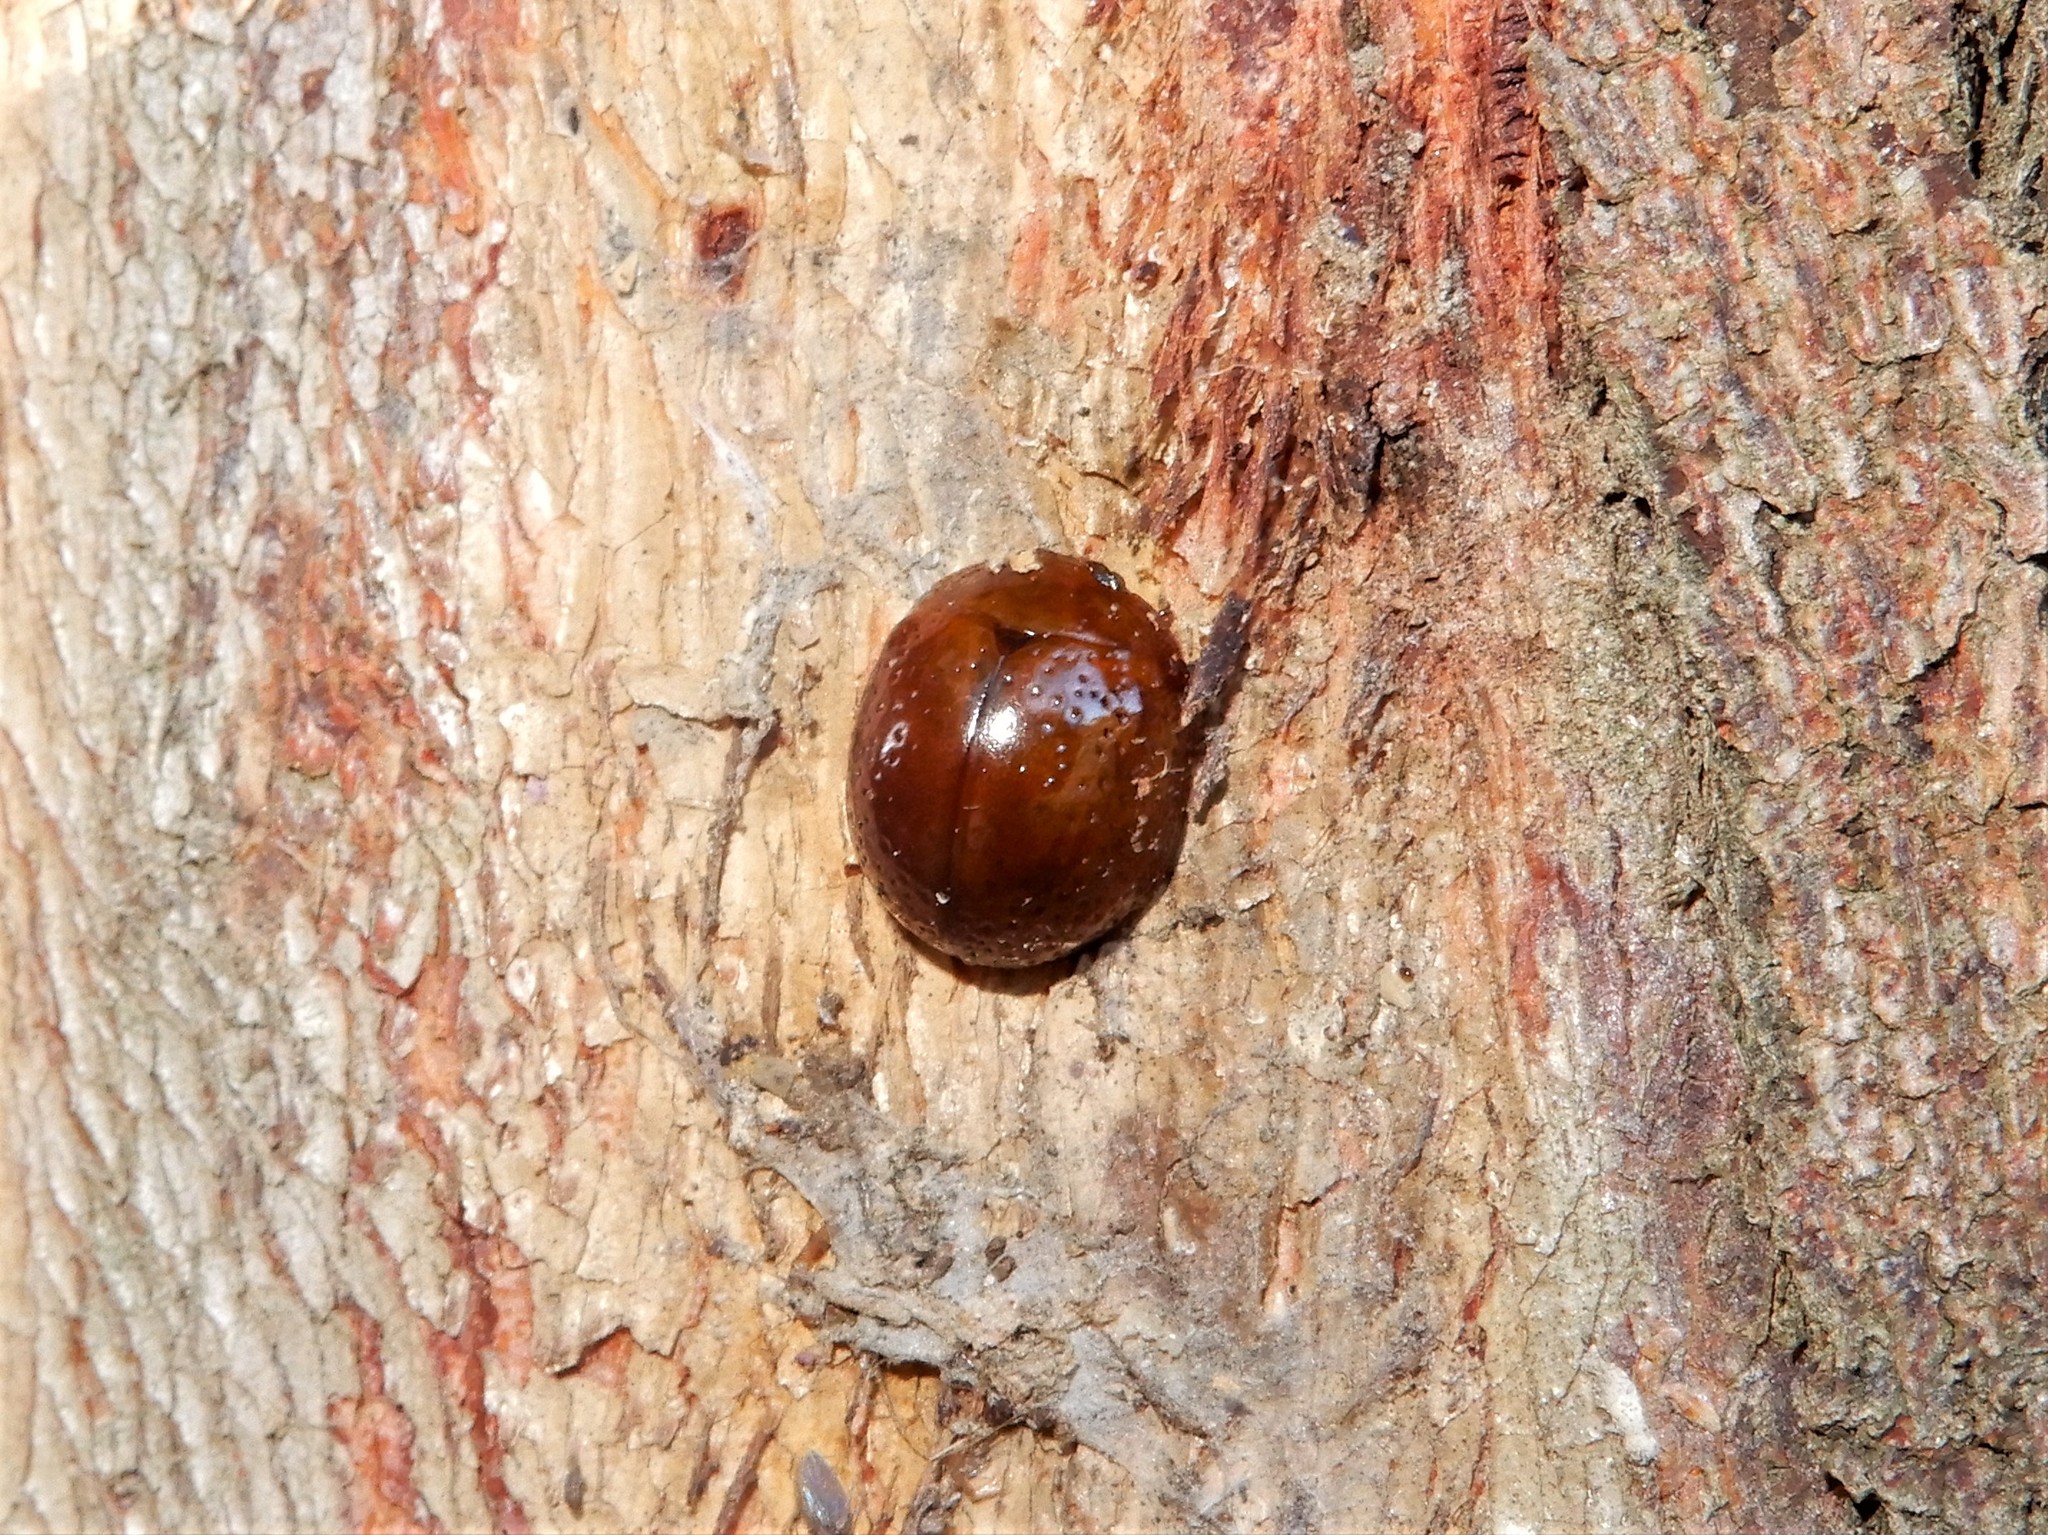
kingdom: Animalia
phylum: Arthropoda
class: Insecta
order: Coleoptera
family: Chrysomelidae
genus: Dicranosterna
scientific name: Dicranosterna
